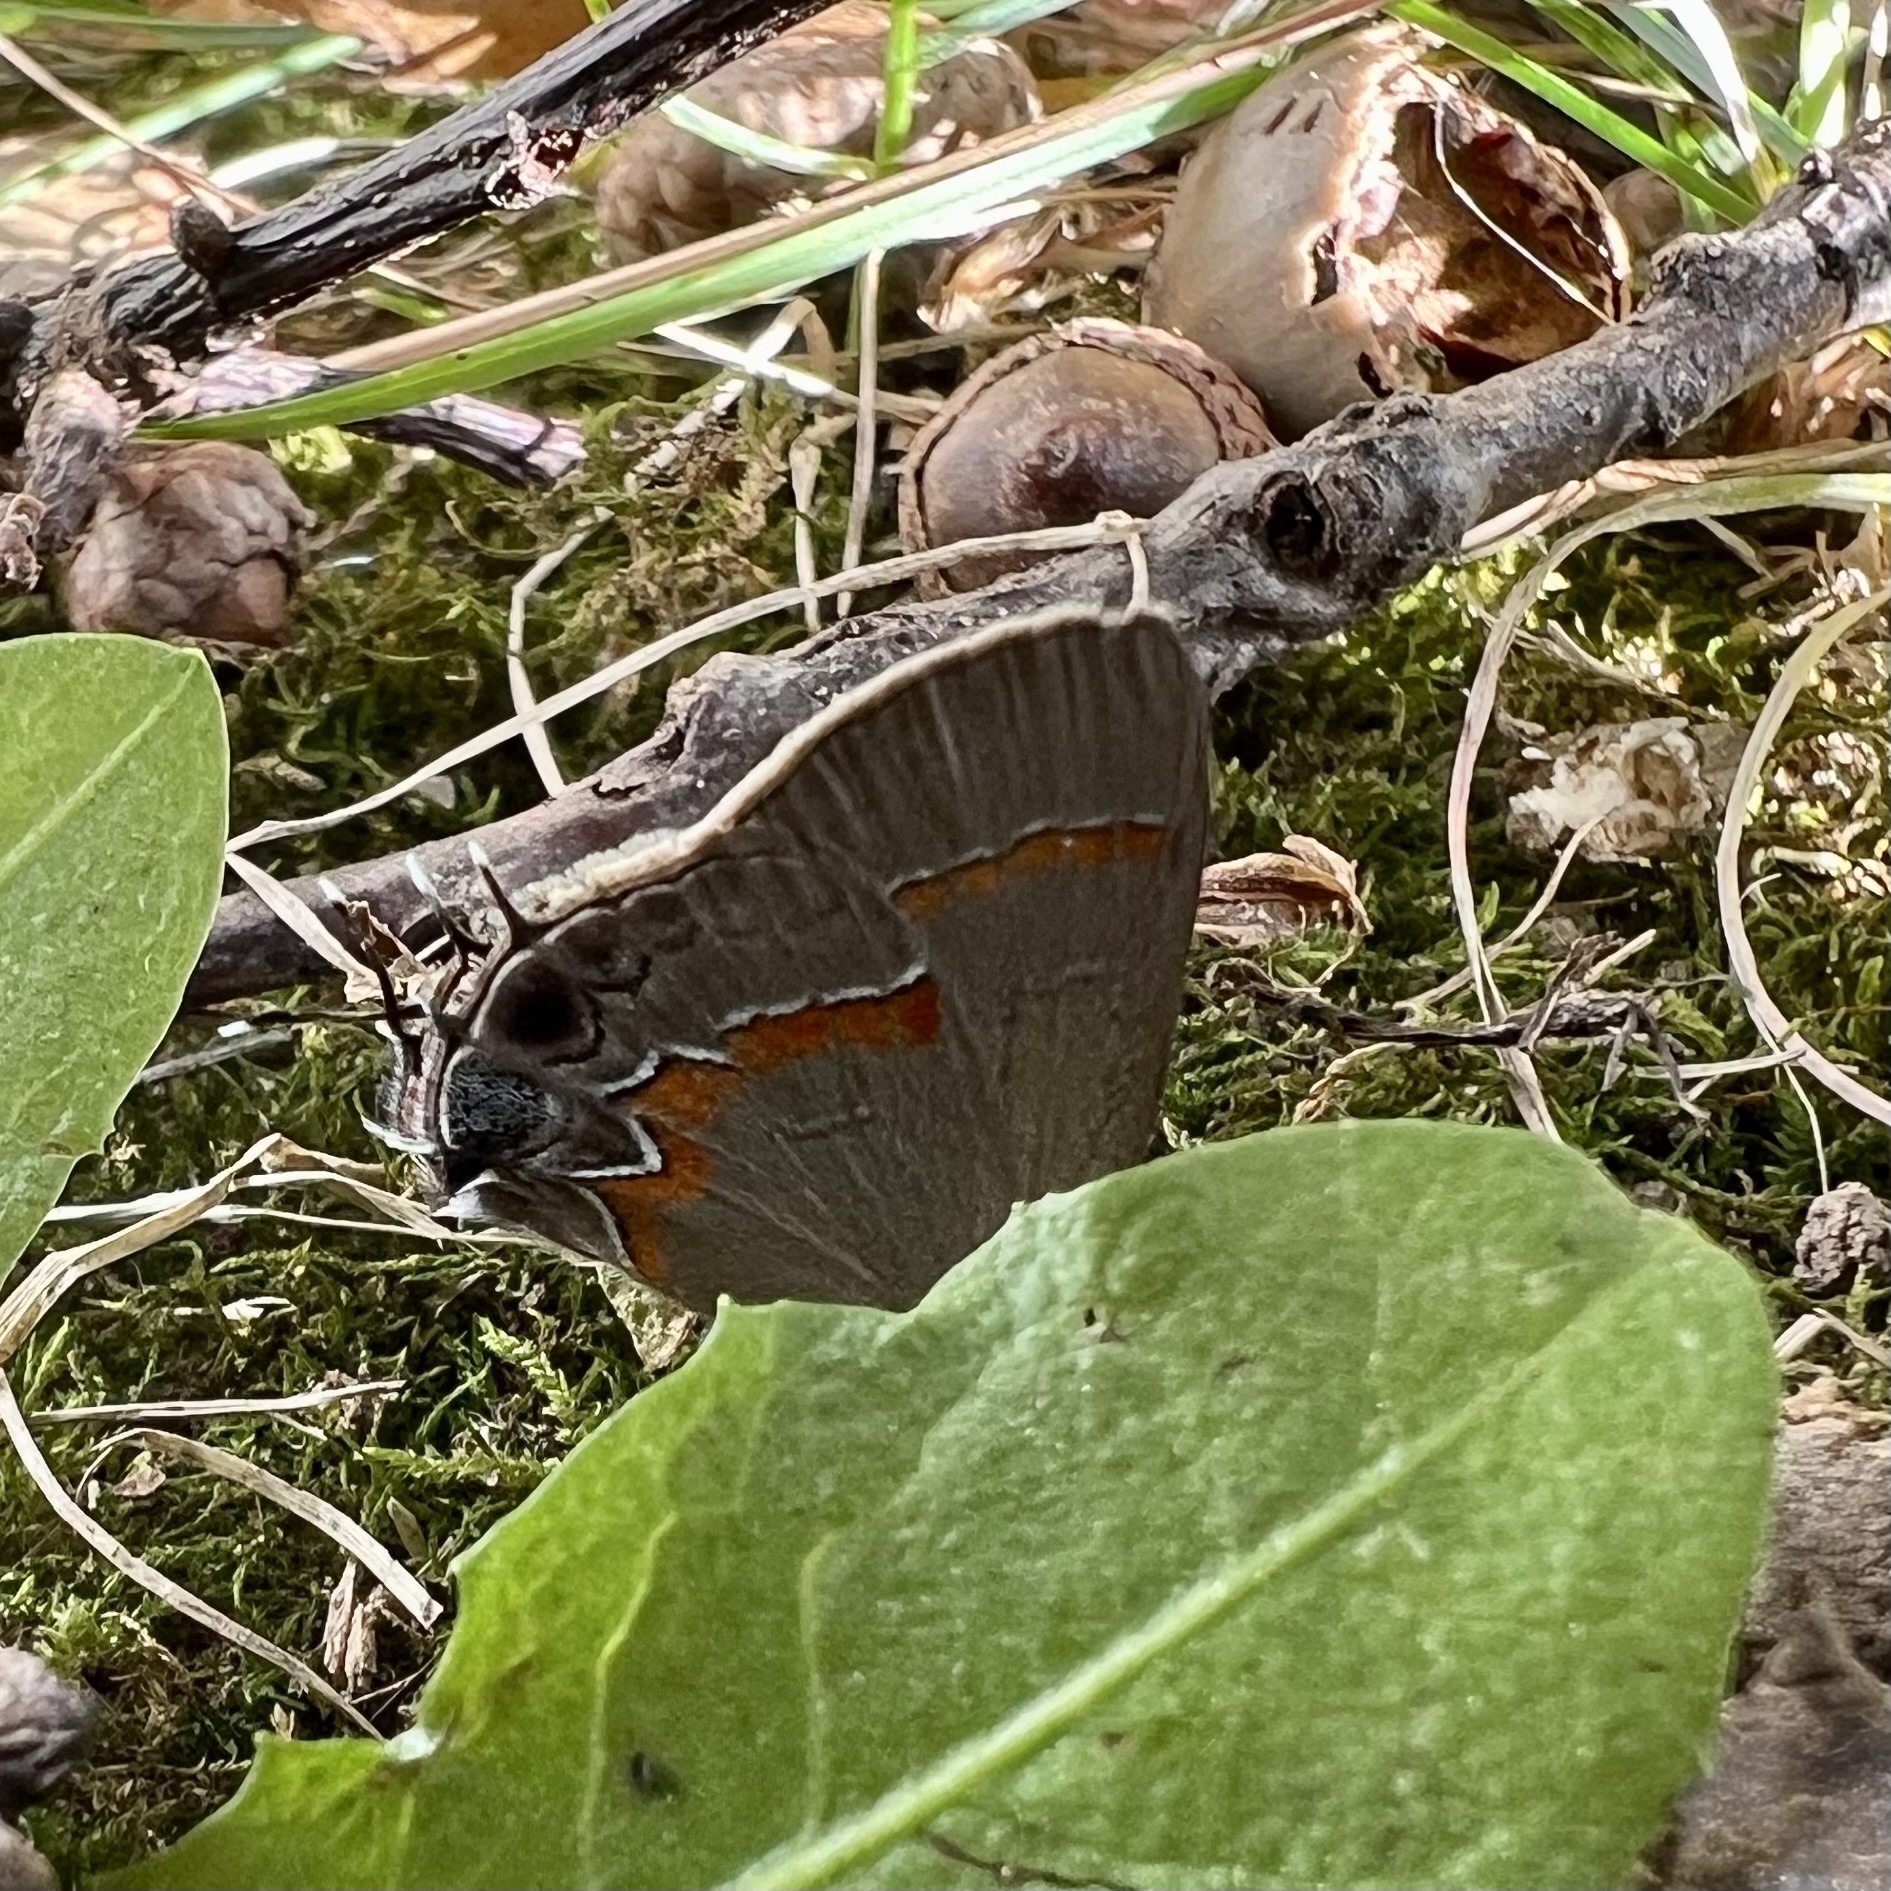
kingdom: Animalia
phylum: Arthropoda
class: Insecta
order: Lepidoptera
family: Lycaenidae
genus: Calycopis
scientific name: Calycopis cecrops
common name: Red-banded hairstreak
